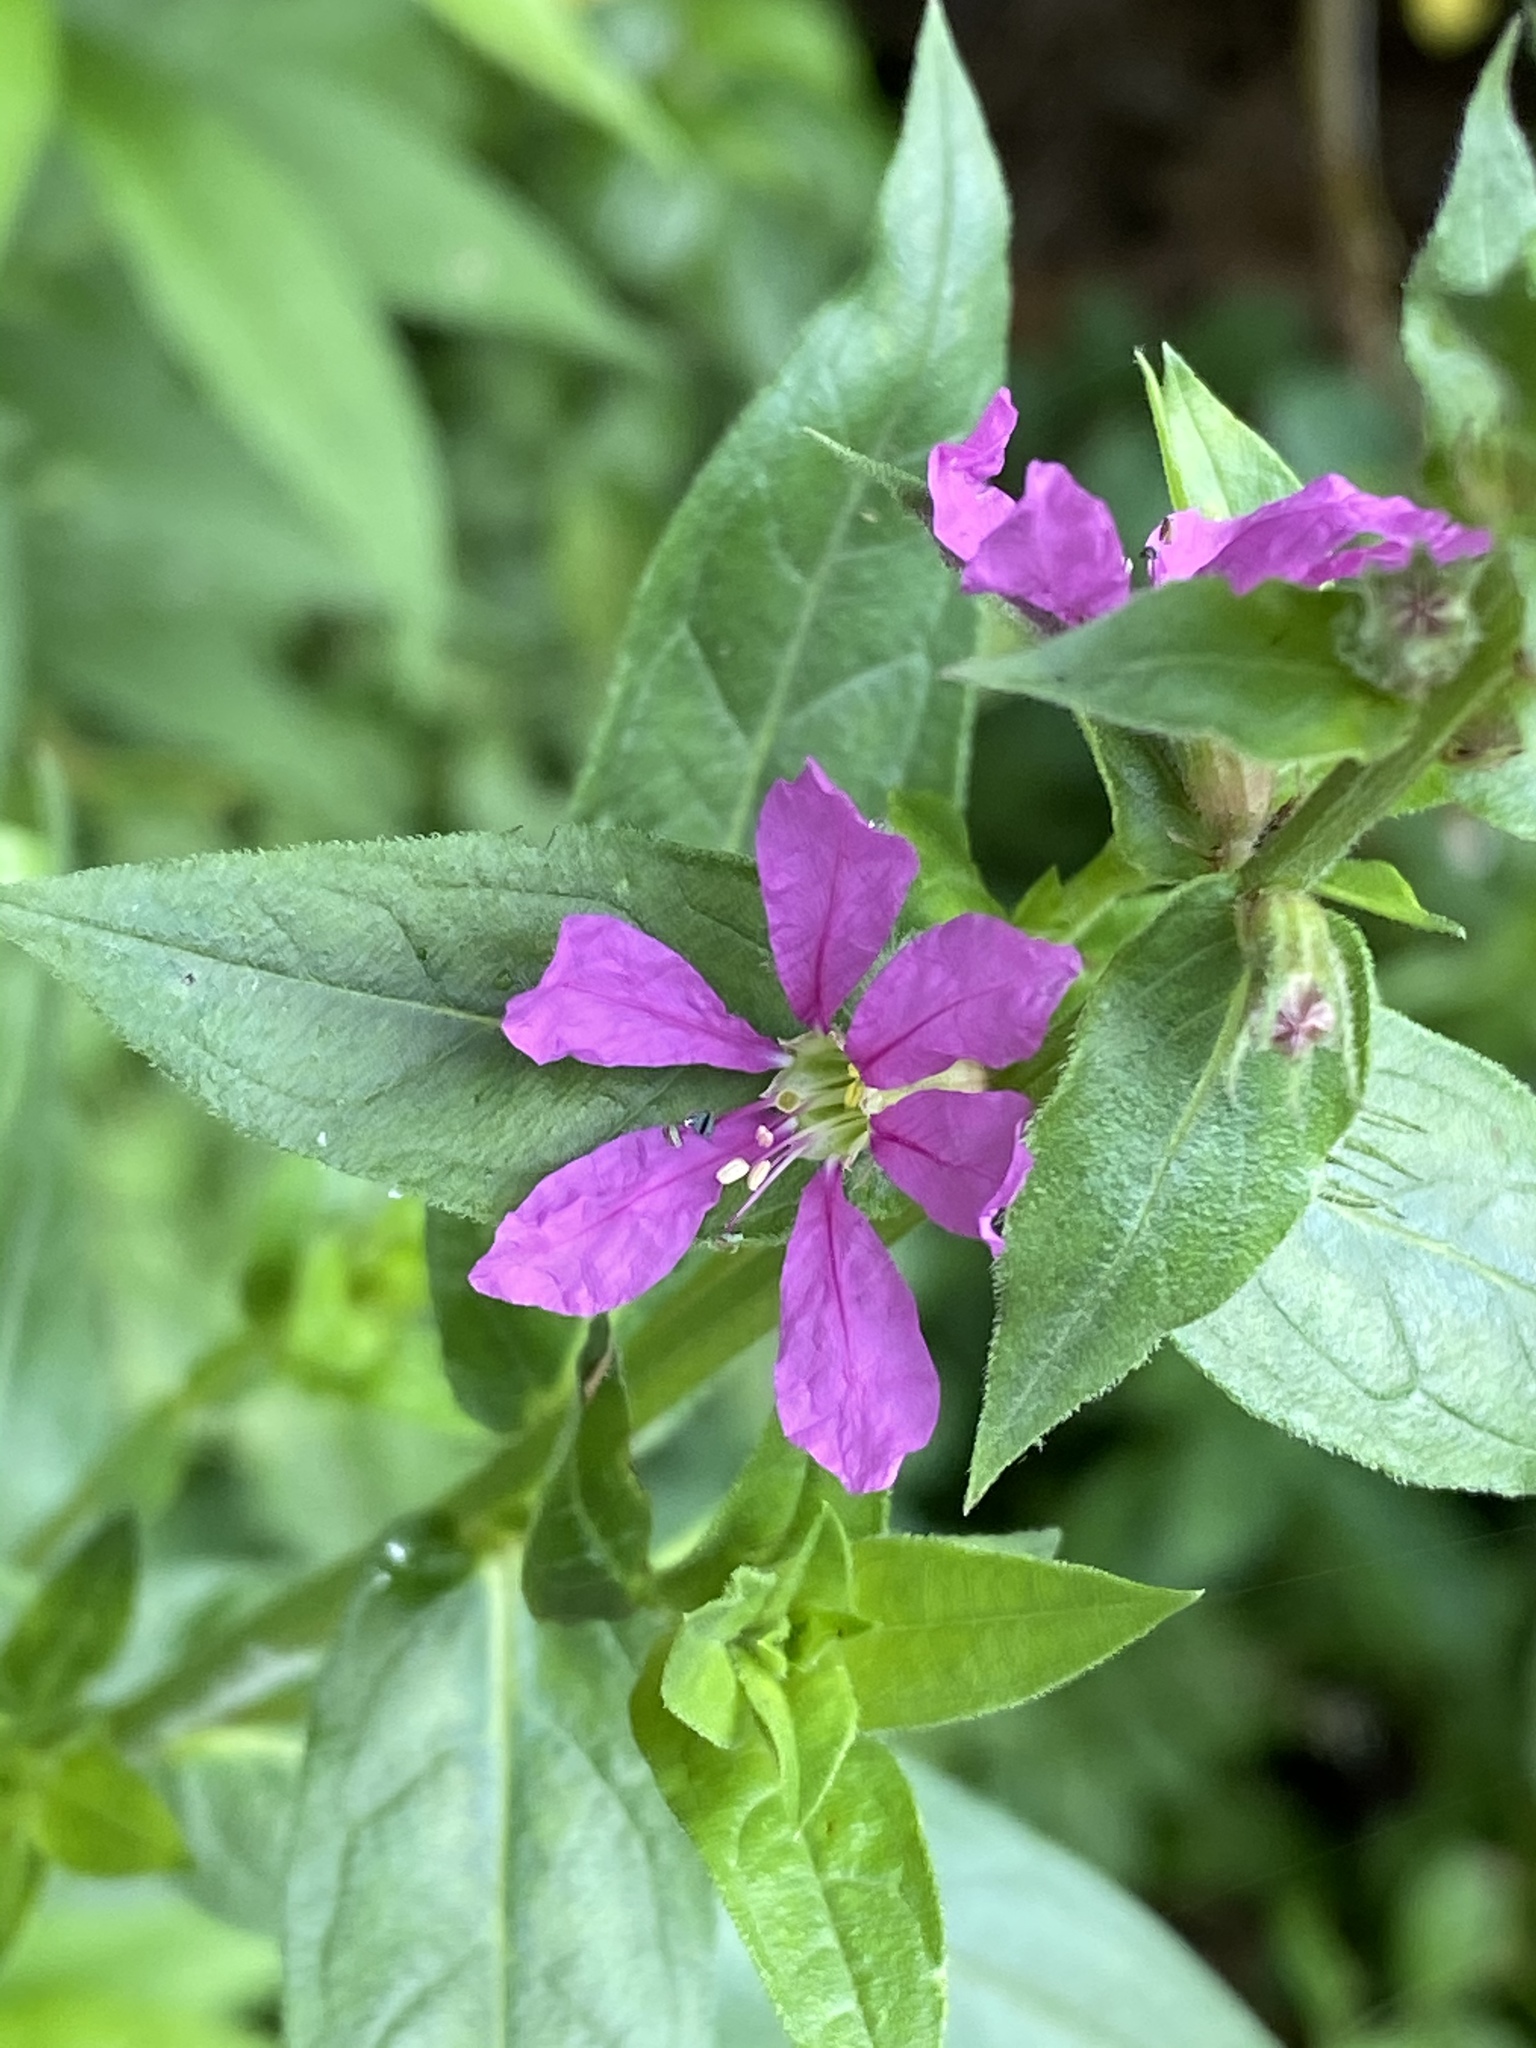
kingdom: Plantae
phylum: Tracheophyta
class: Magnoliopsida
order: Myrtales
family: Lythraceae
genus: Lythrum
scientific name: Lythrum salicaria
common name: Purple loosestrife
